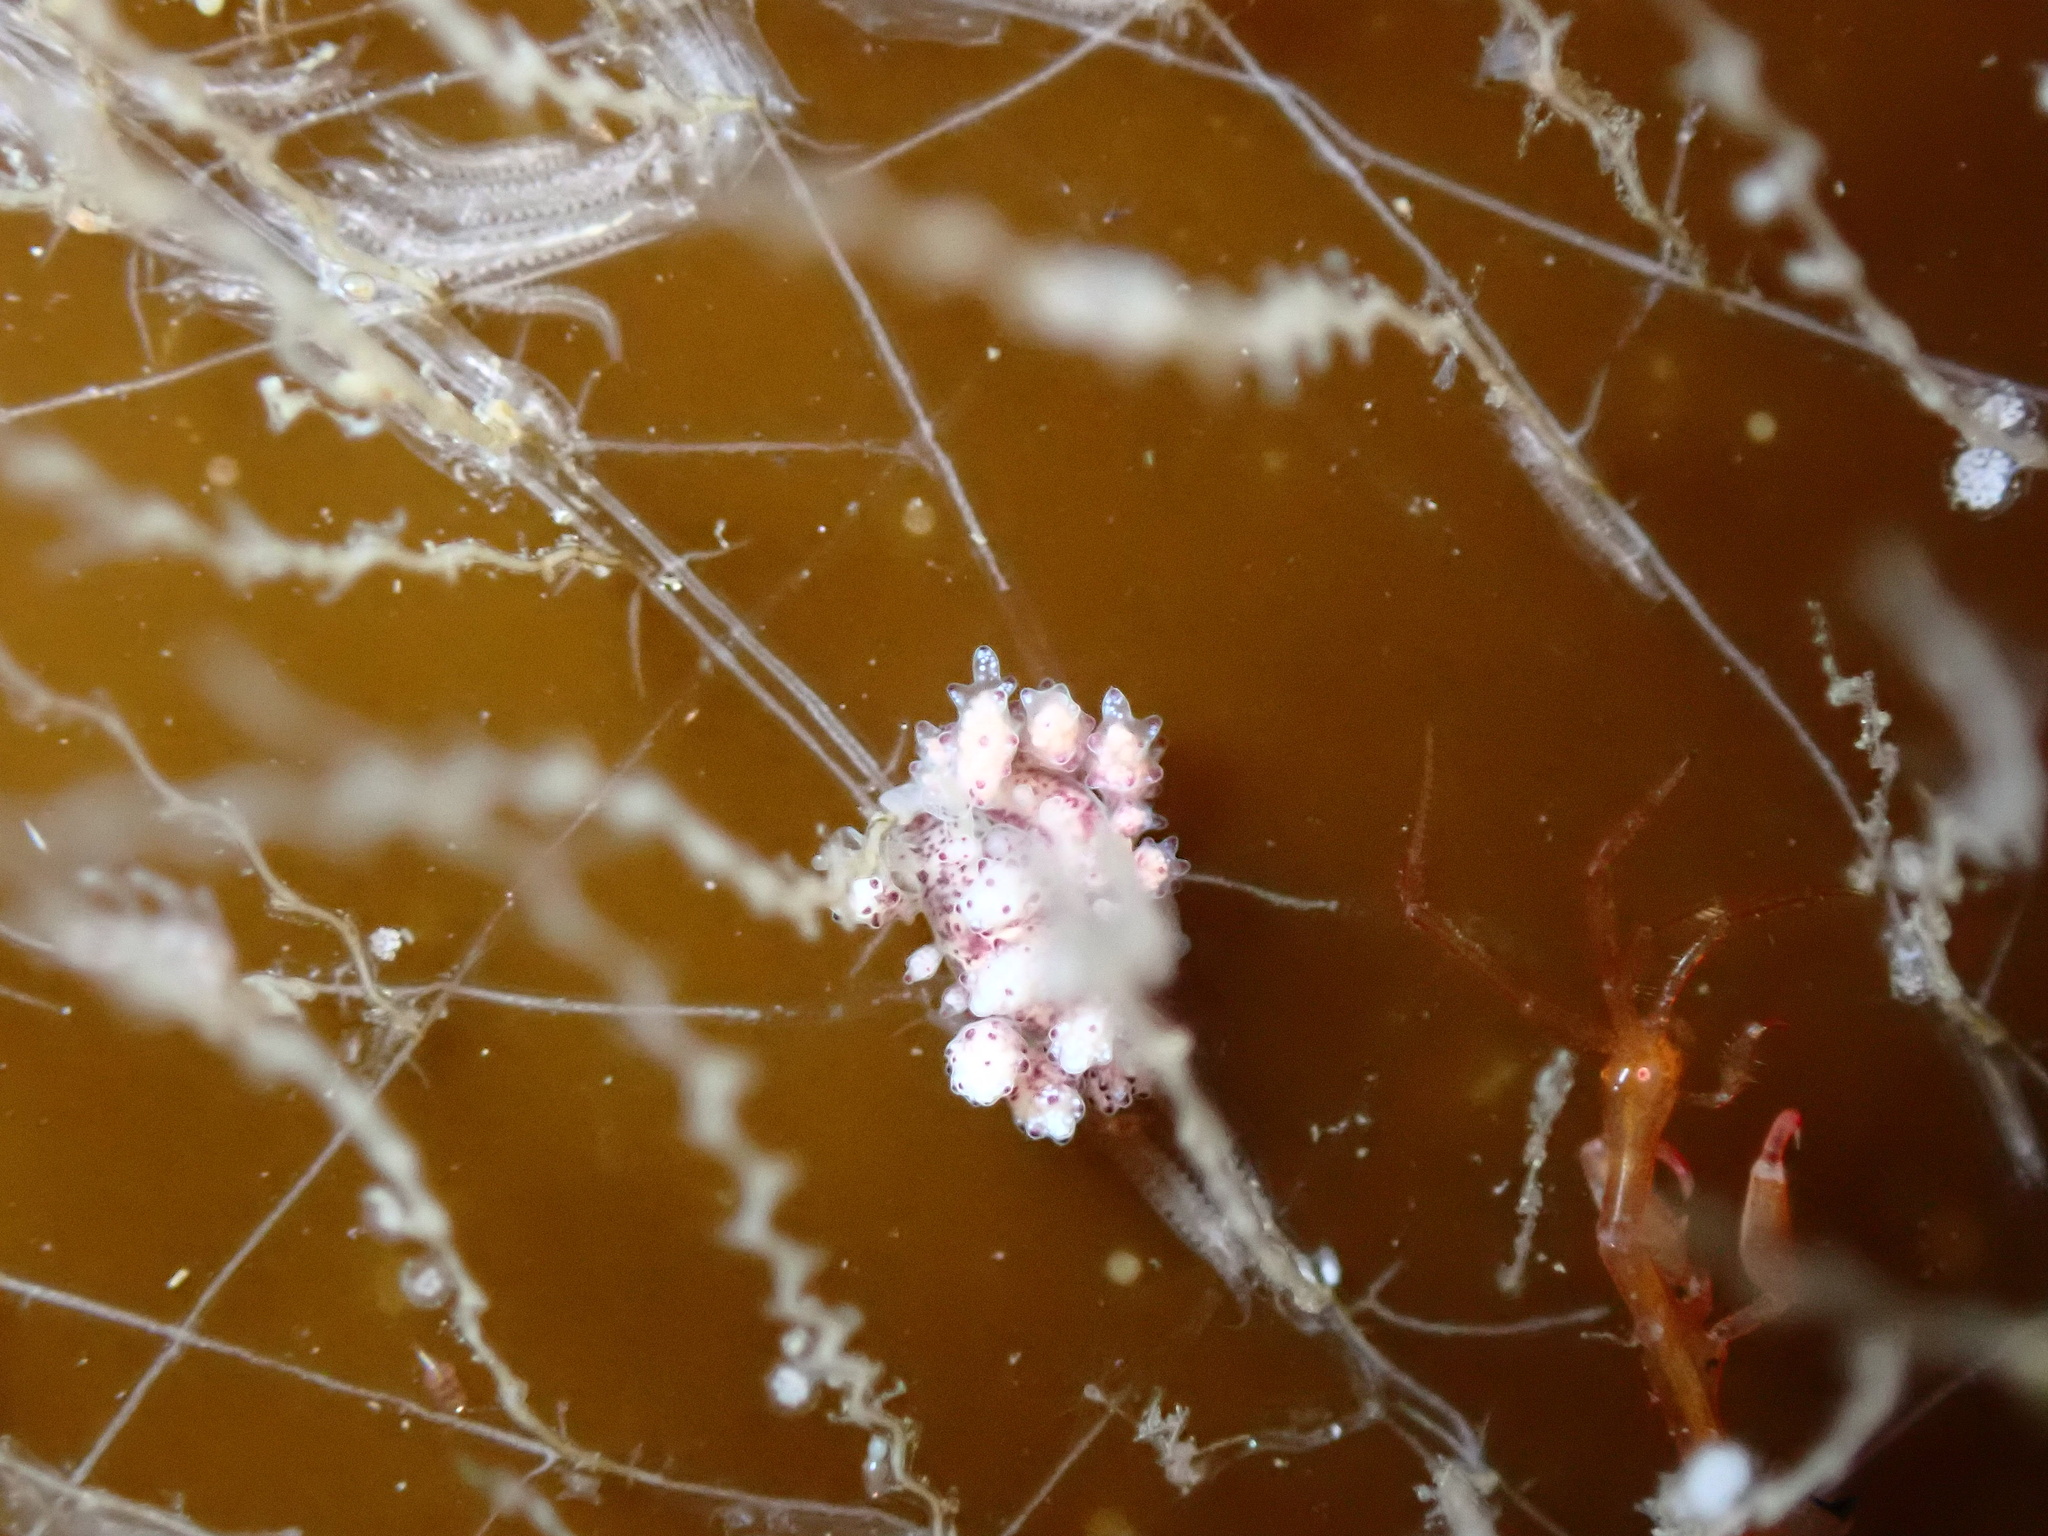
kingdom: Animalia
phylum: Mollusca
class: Gastropoda
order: Nudibranchia
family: Dotidae
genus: Doto
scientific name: Doto coronata
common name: Coronate doto
